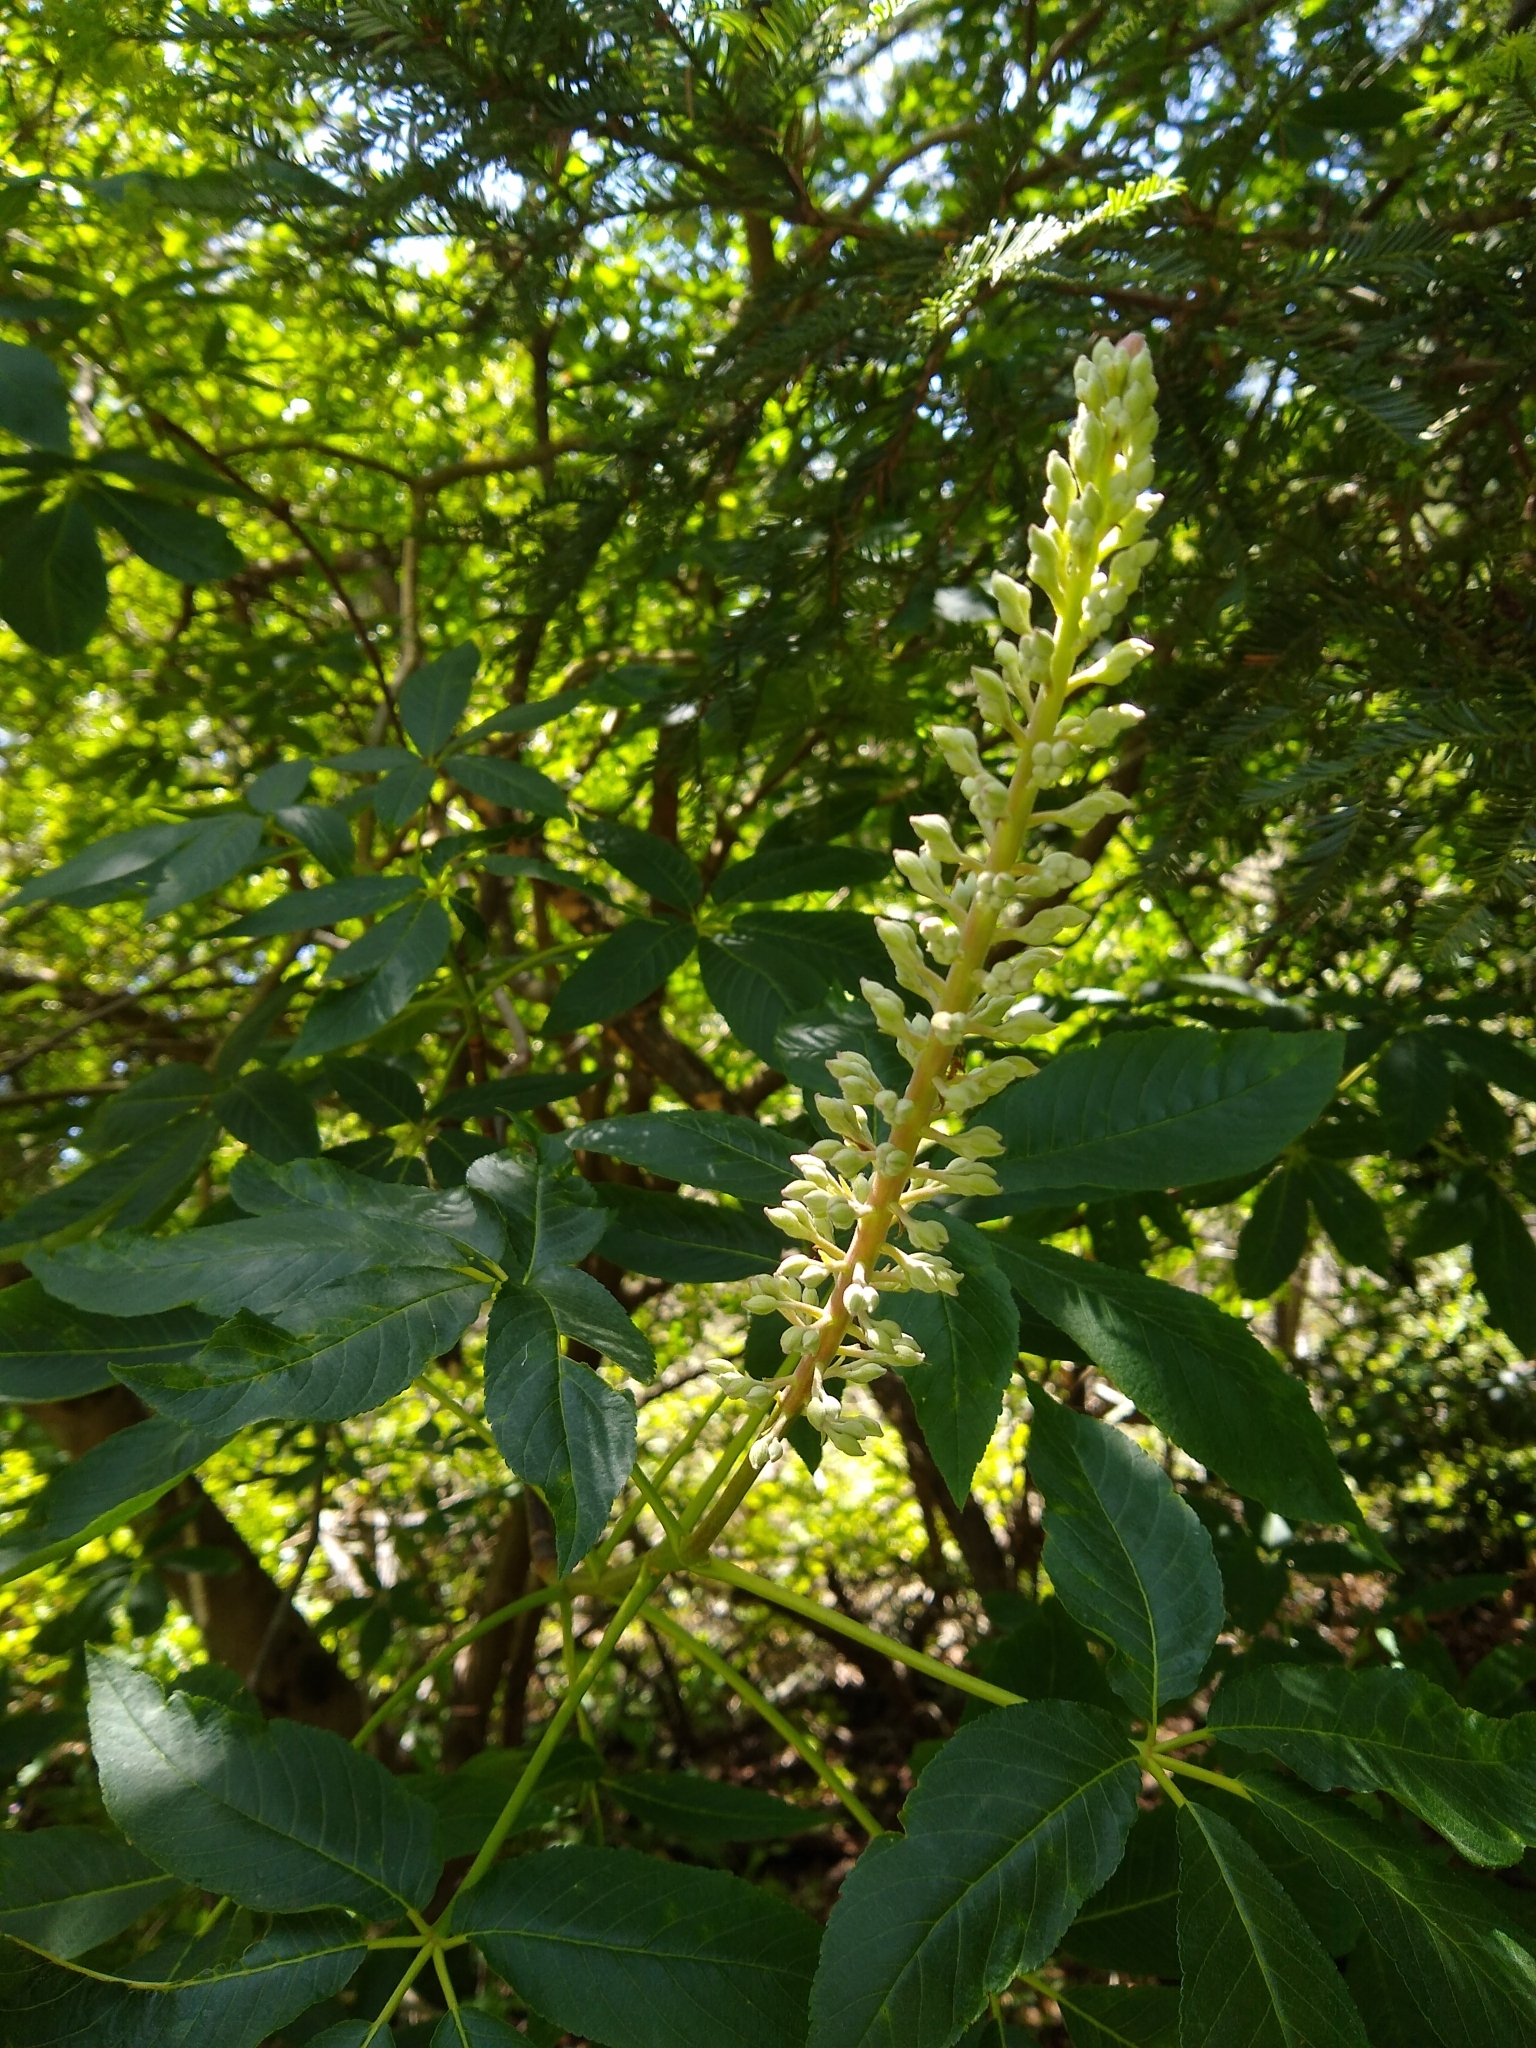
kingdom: Plantae
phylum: Tracheophyta
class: Magnoliopsida
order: Sapindales
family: Sapindaceae
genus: Aesculus
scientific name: Aesculus californica
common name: California buckeye
